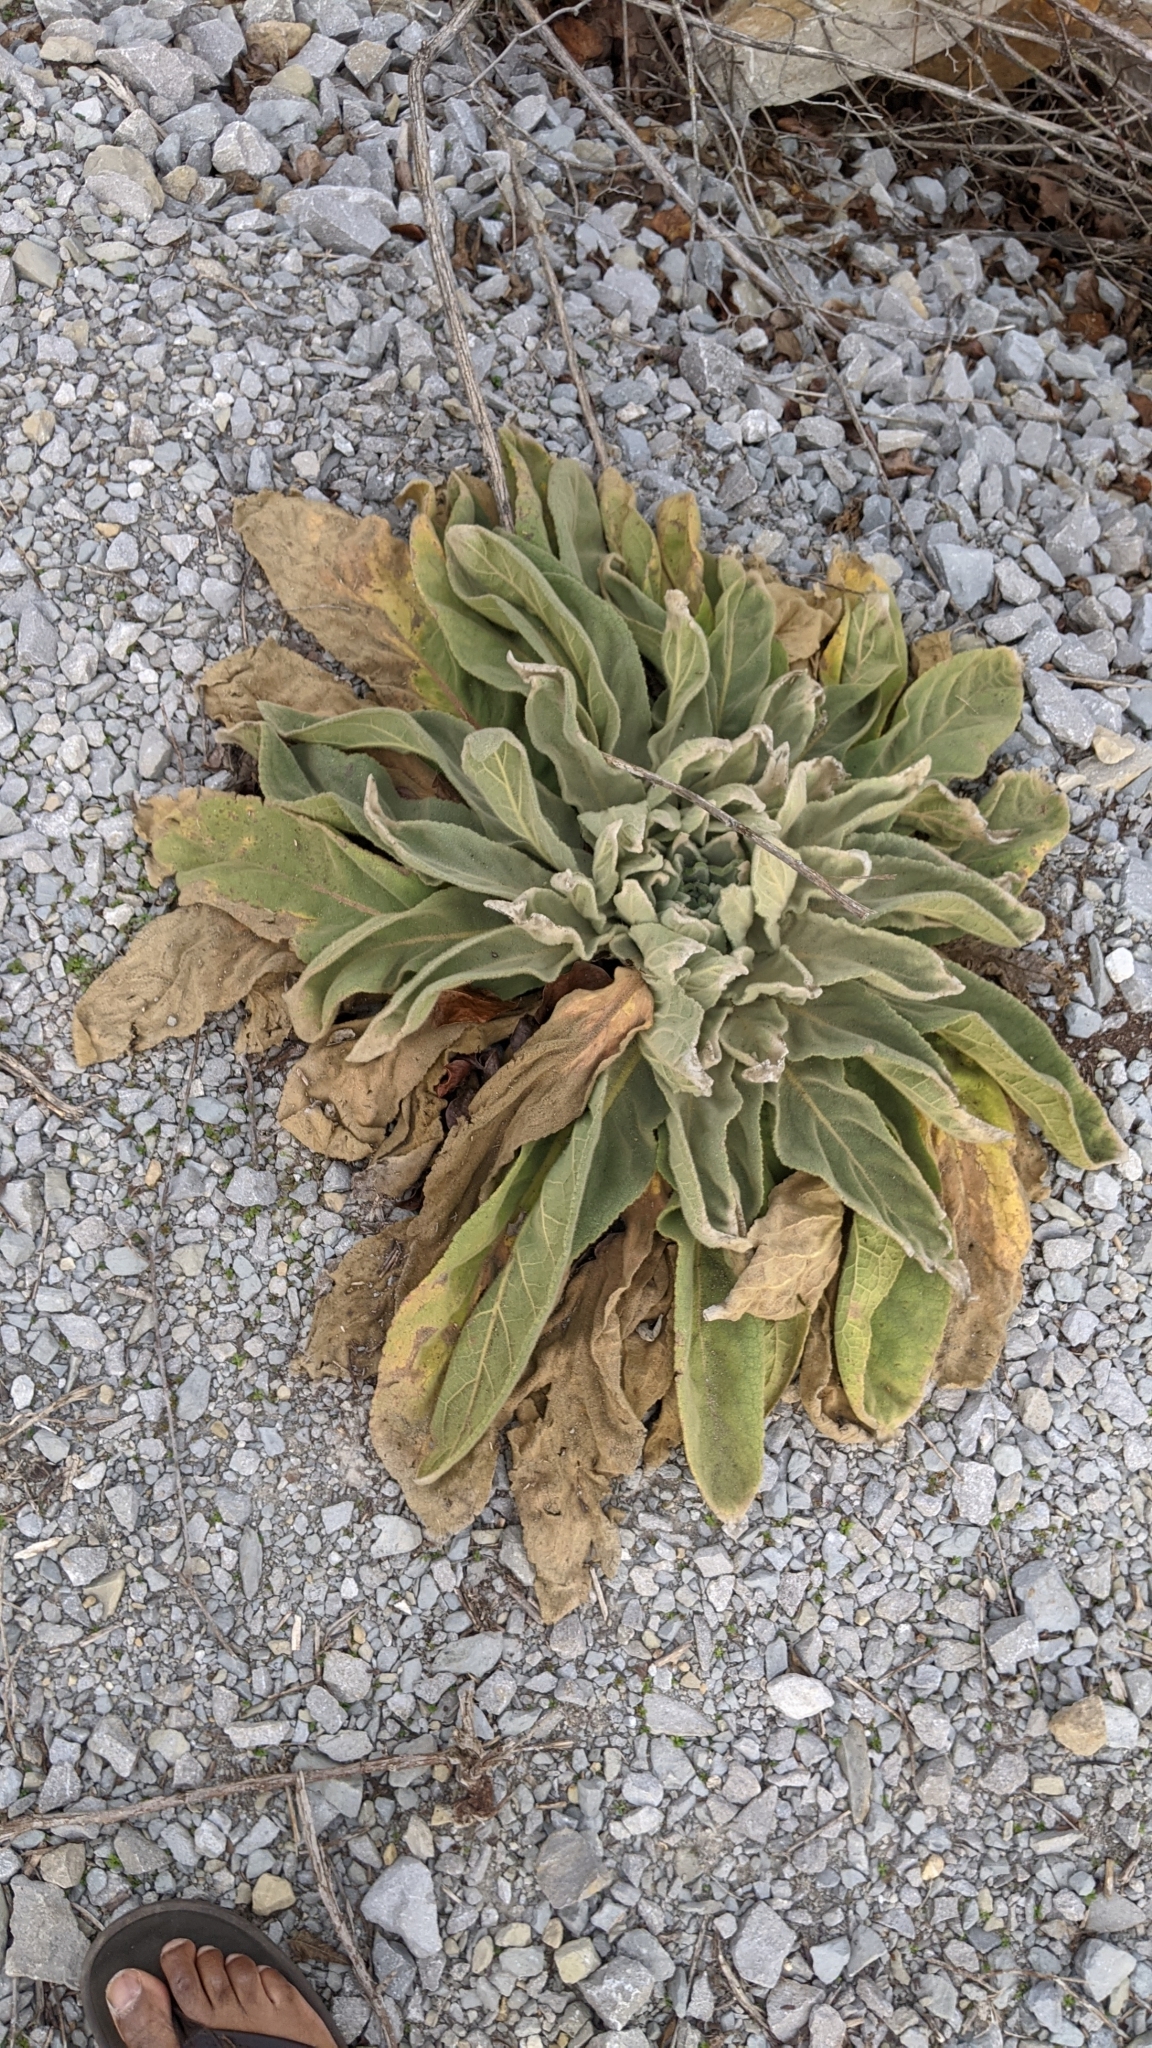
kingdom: Plantae
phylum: Tracheophyta
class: Magnoliopsida
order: Lamiales
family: Scrophulariaceae
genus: Verbascum
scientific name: Verbascum thapsus
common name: Common mullein
